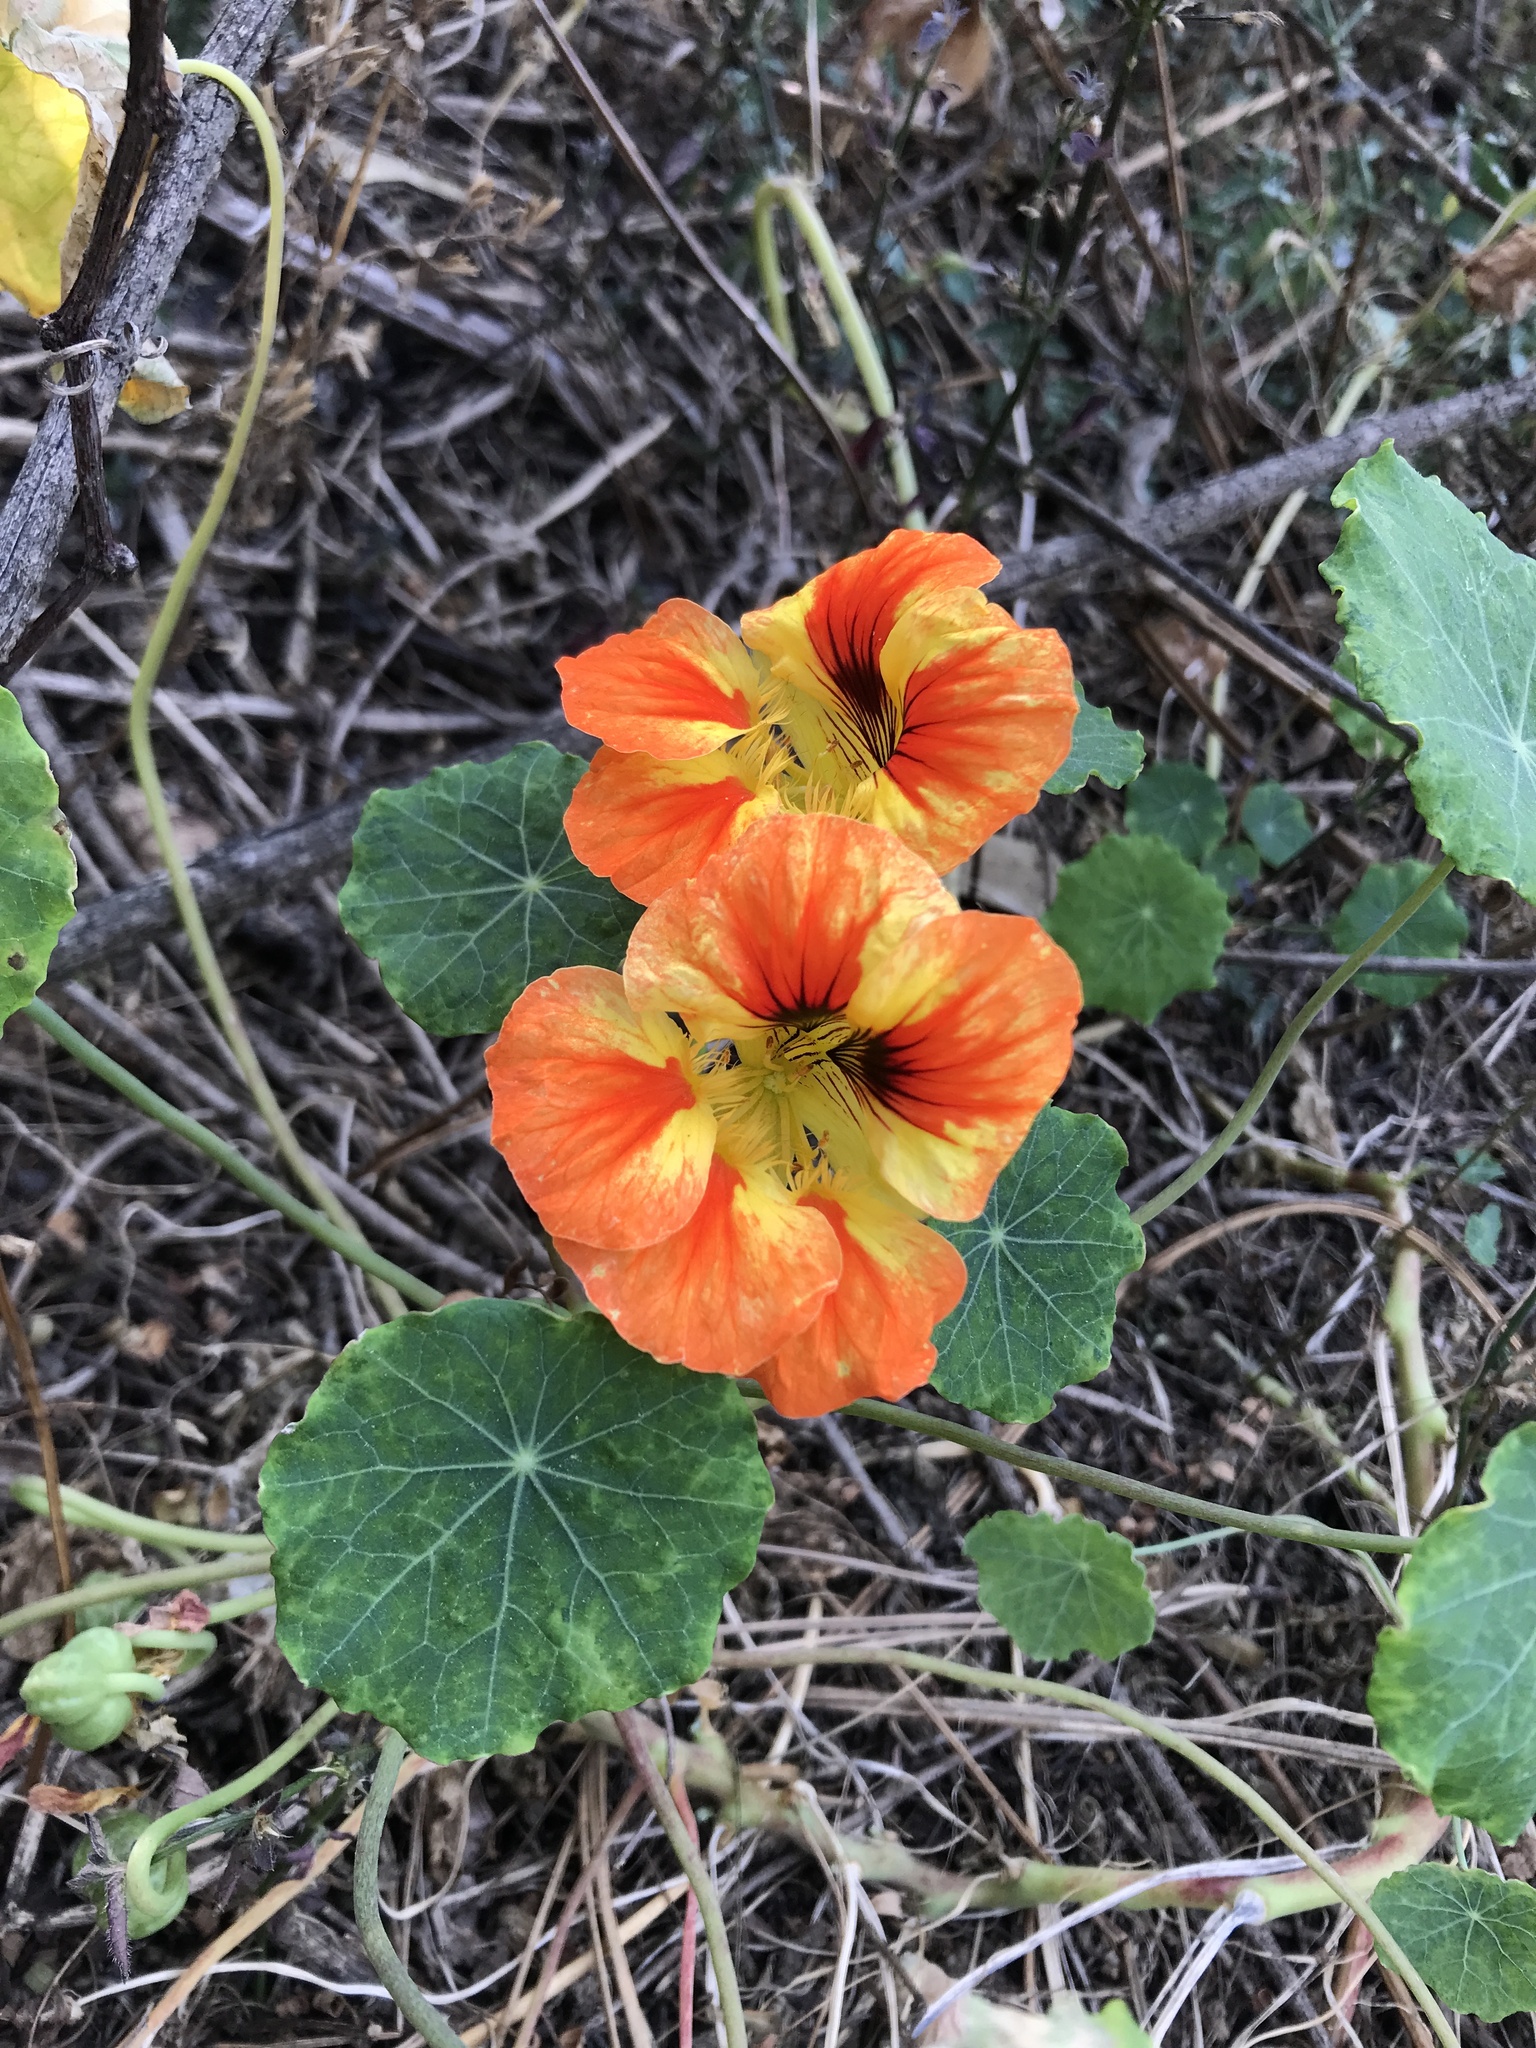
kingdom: Plantae
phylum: Tracheophyta
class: Magnoliopsida
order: Brassicales
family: Tropaeolaceae
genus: Tropaeolum
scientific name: Tropaeolum majus
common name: Nasturtium
